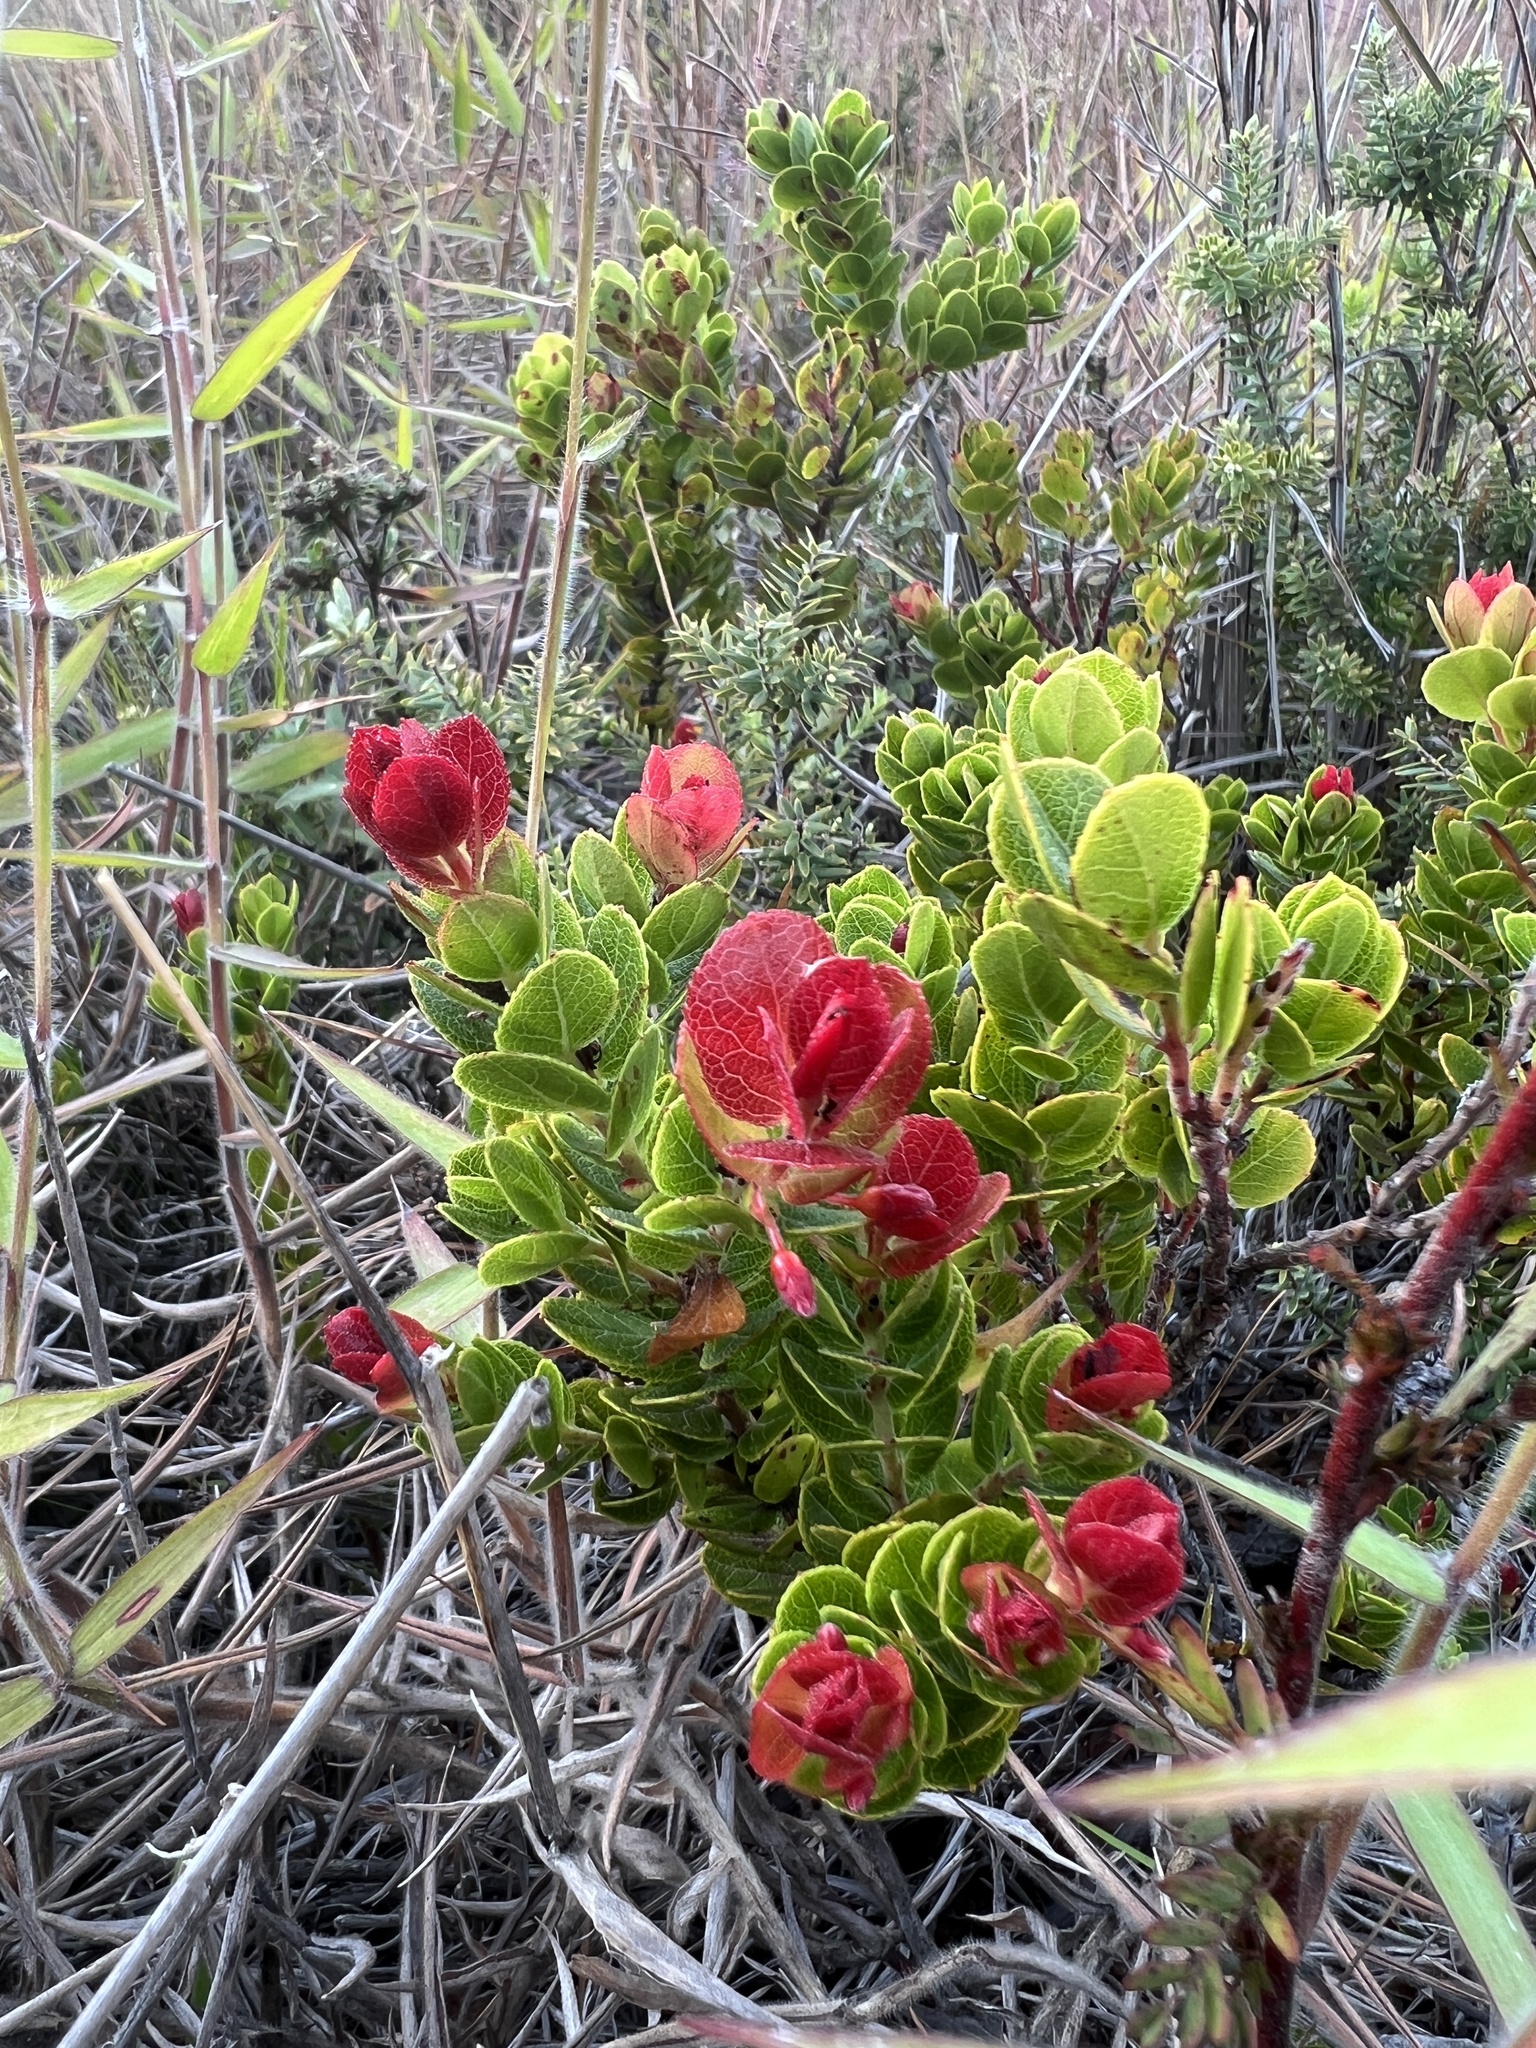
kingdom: Plantae
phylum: Tracheophyta
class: Magnoliopsida
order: Ericales
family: Ericaceae
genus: Vaccinium
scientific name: Vaccinium reticulatum
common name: Ohelo
